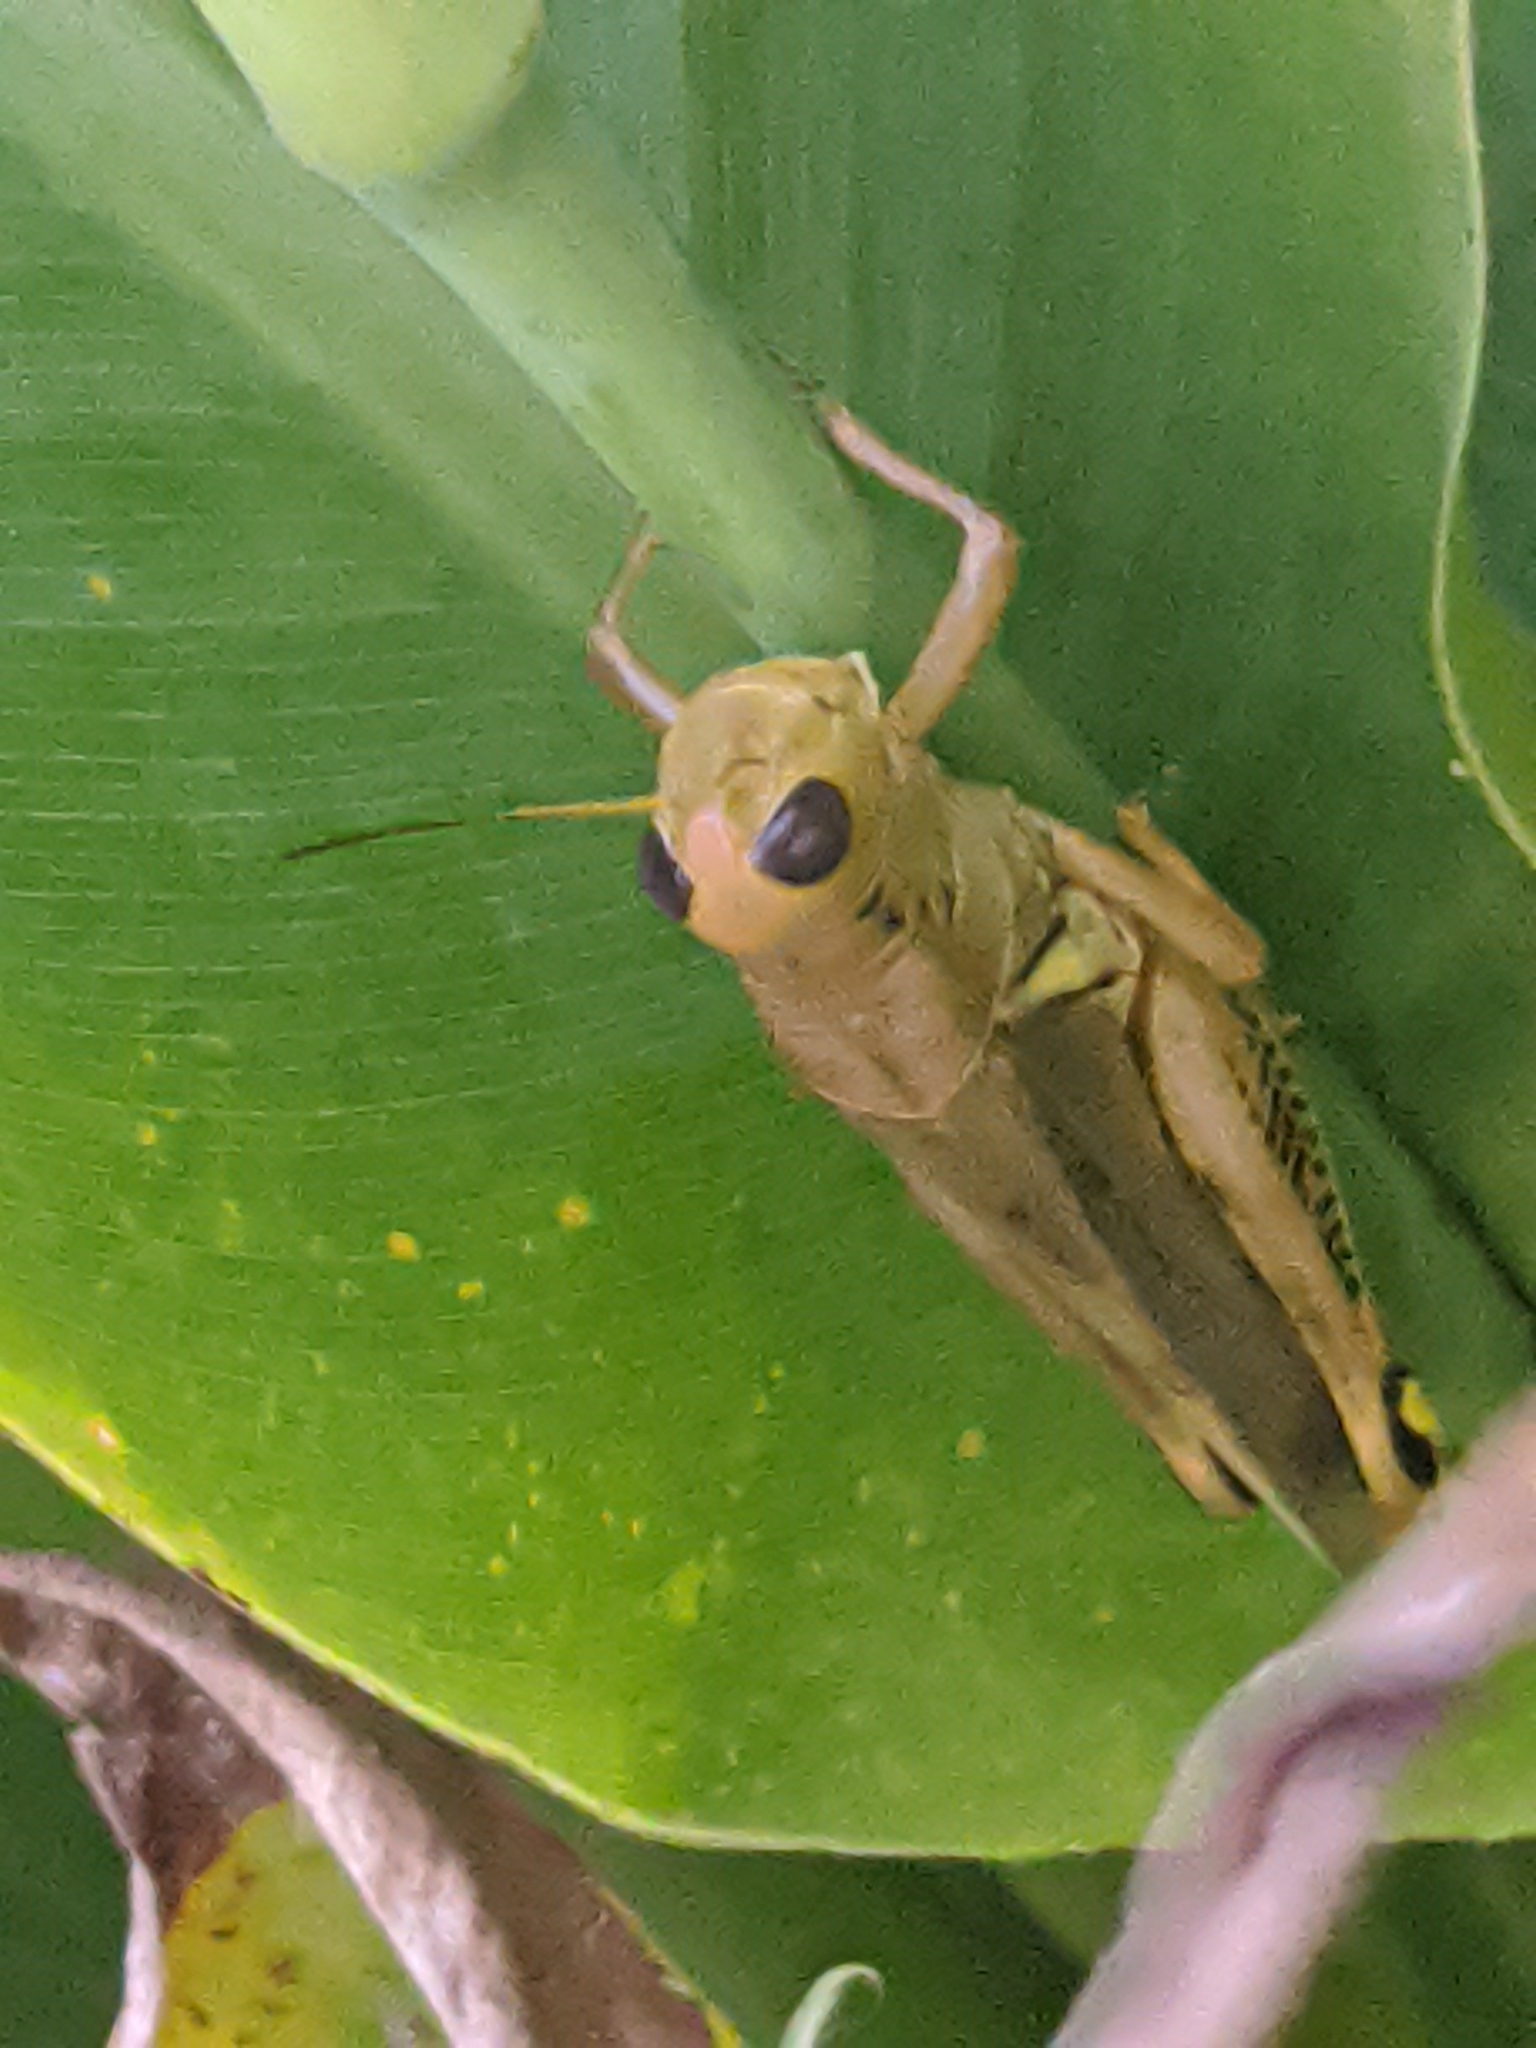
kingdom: Animalia
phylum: Arthropoda
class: Insecta
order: Orthoptera
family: Acrididae
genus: Melanoplus
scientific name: Melanoplus differentialis
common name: Differential grasshopper
